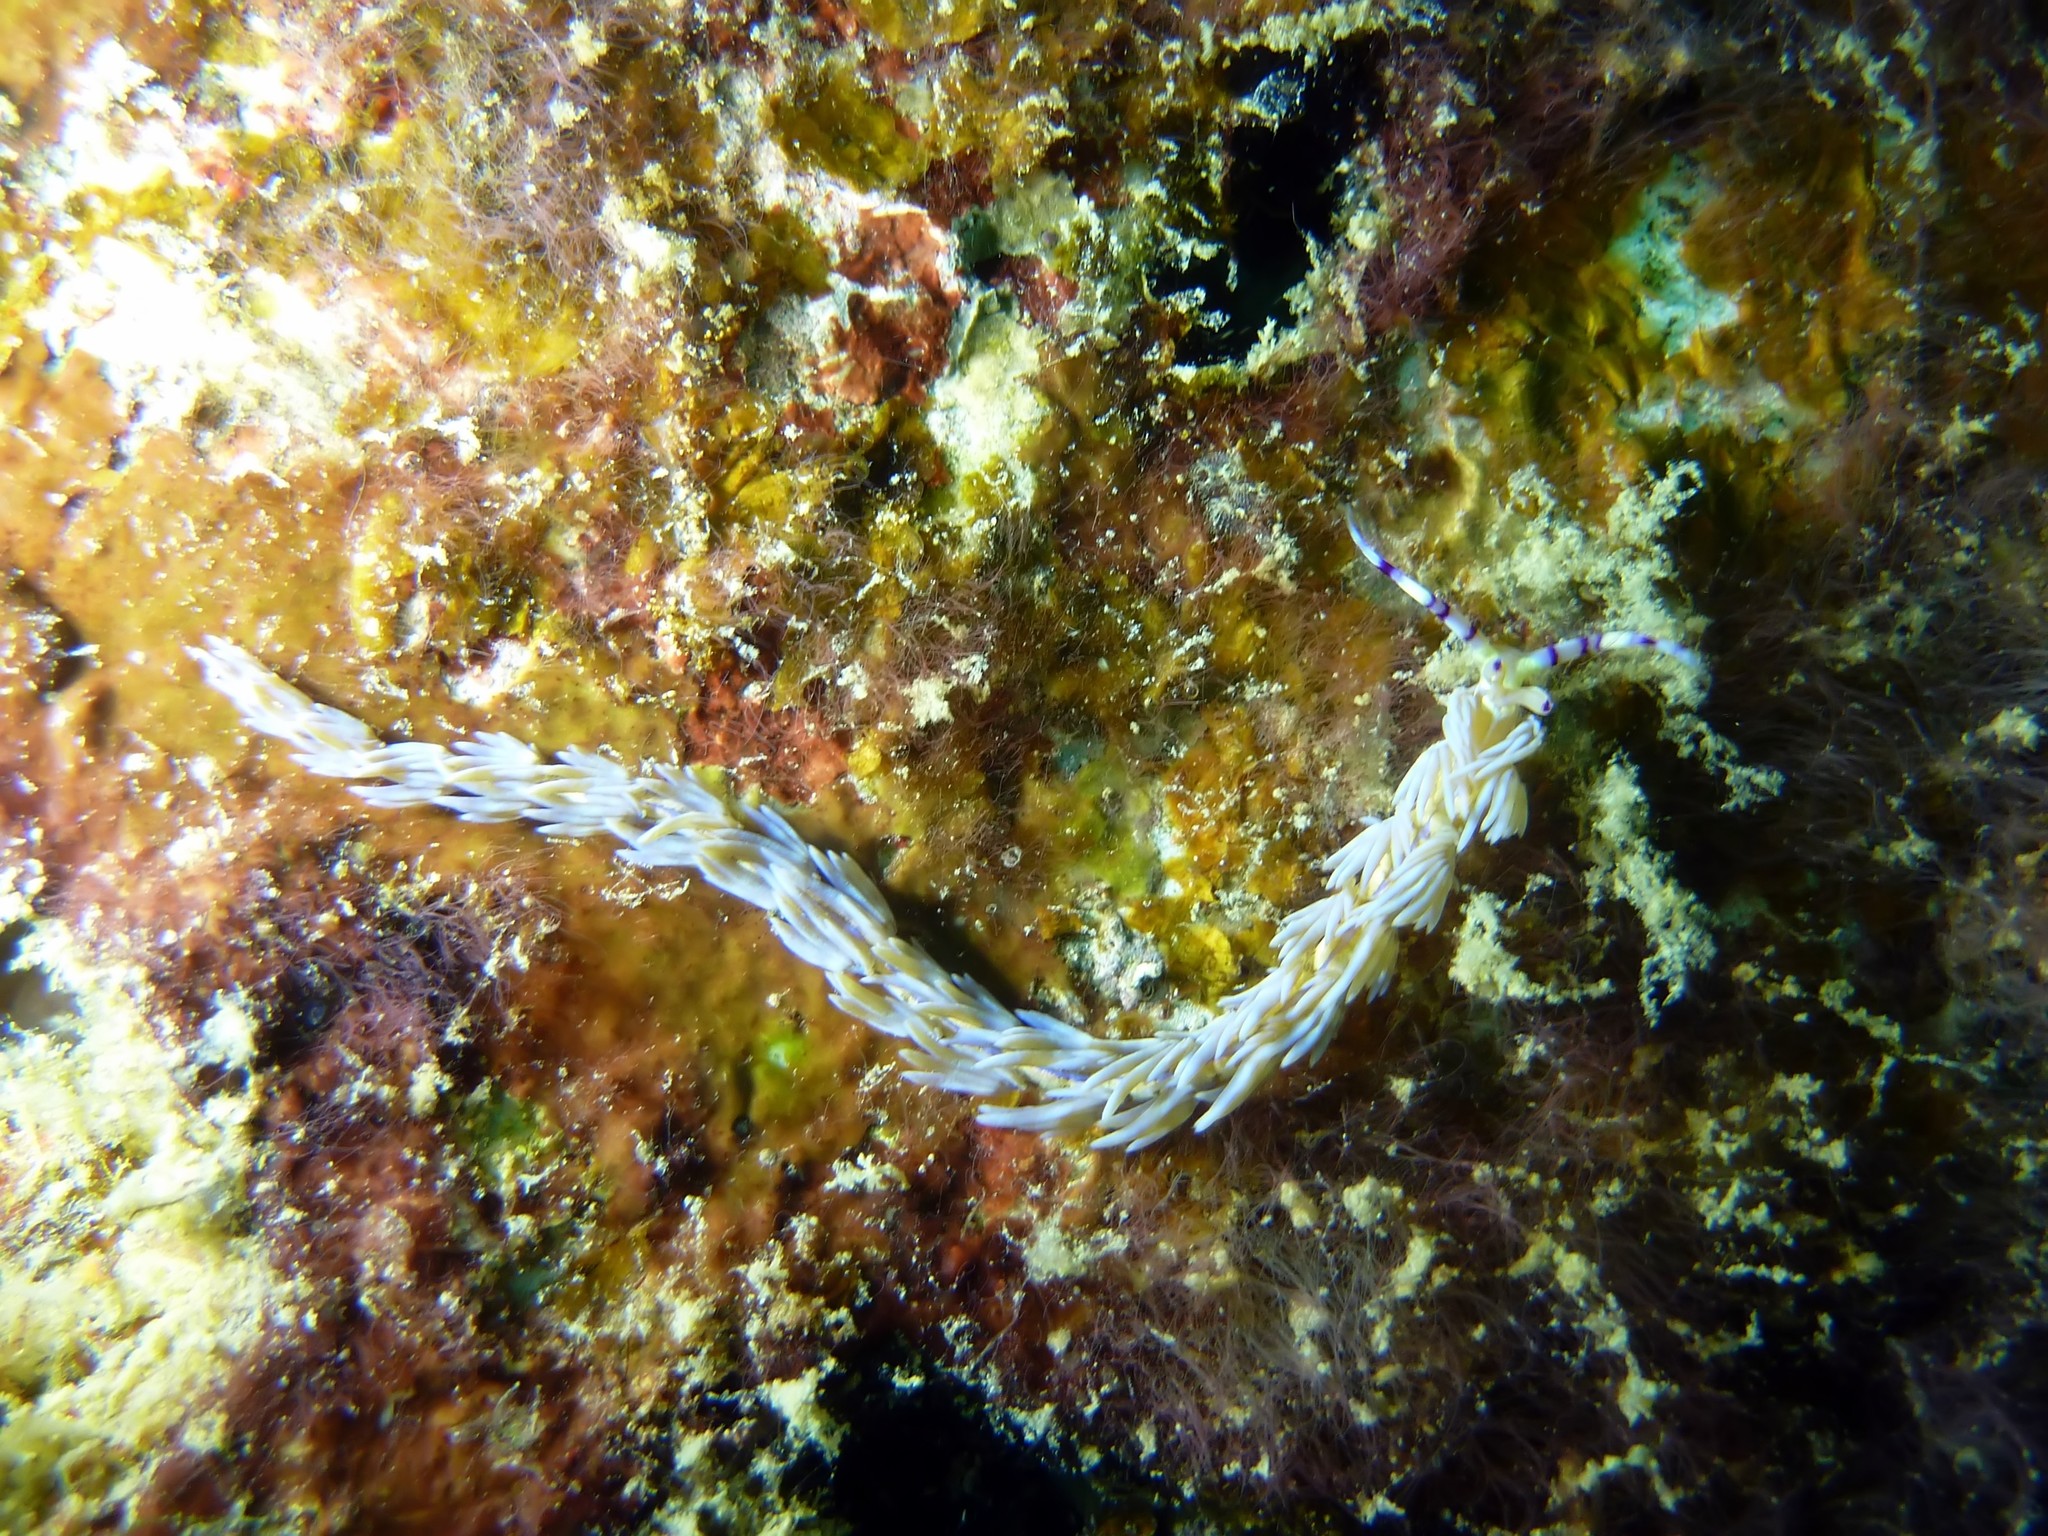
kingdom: Animalia
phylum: Mollusca
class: Gastropoda
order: Nudibranchia
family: Facelinidae
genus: Pteraeolidia
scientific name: Pteraeolidia semperi
